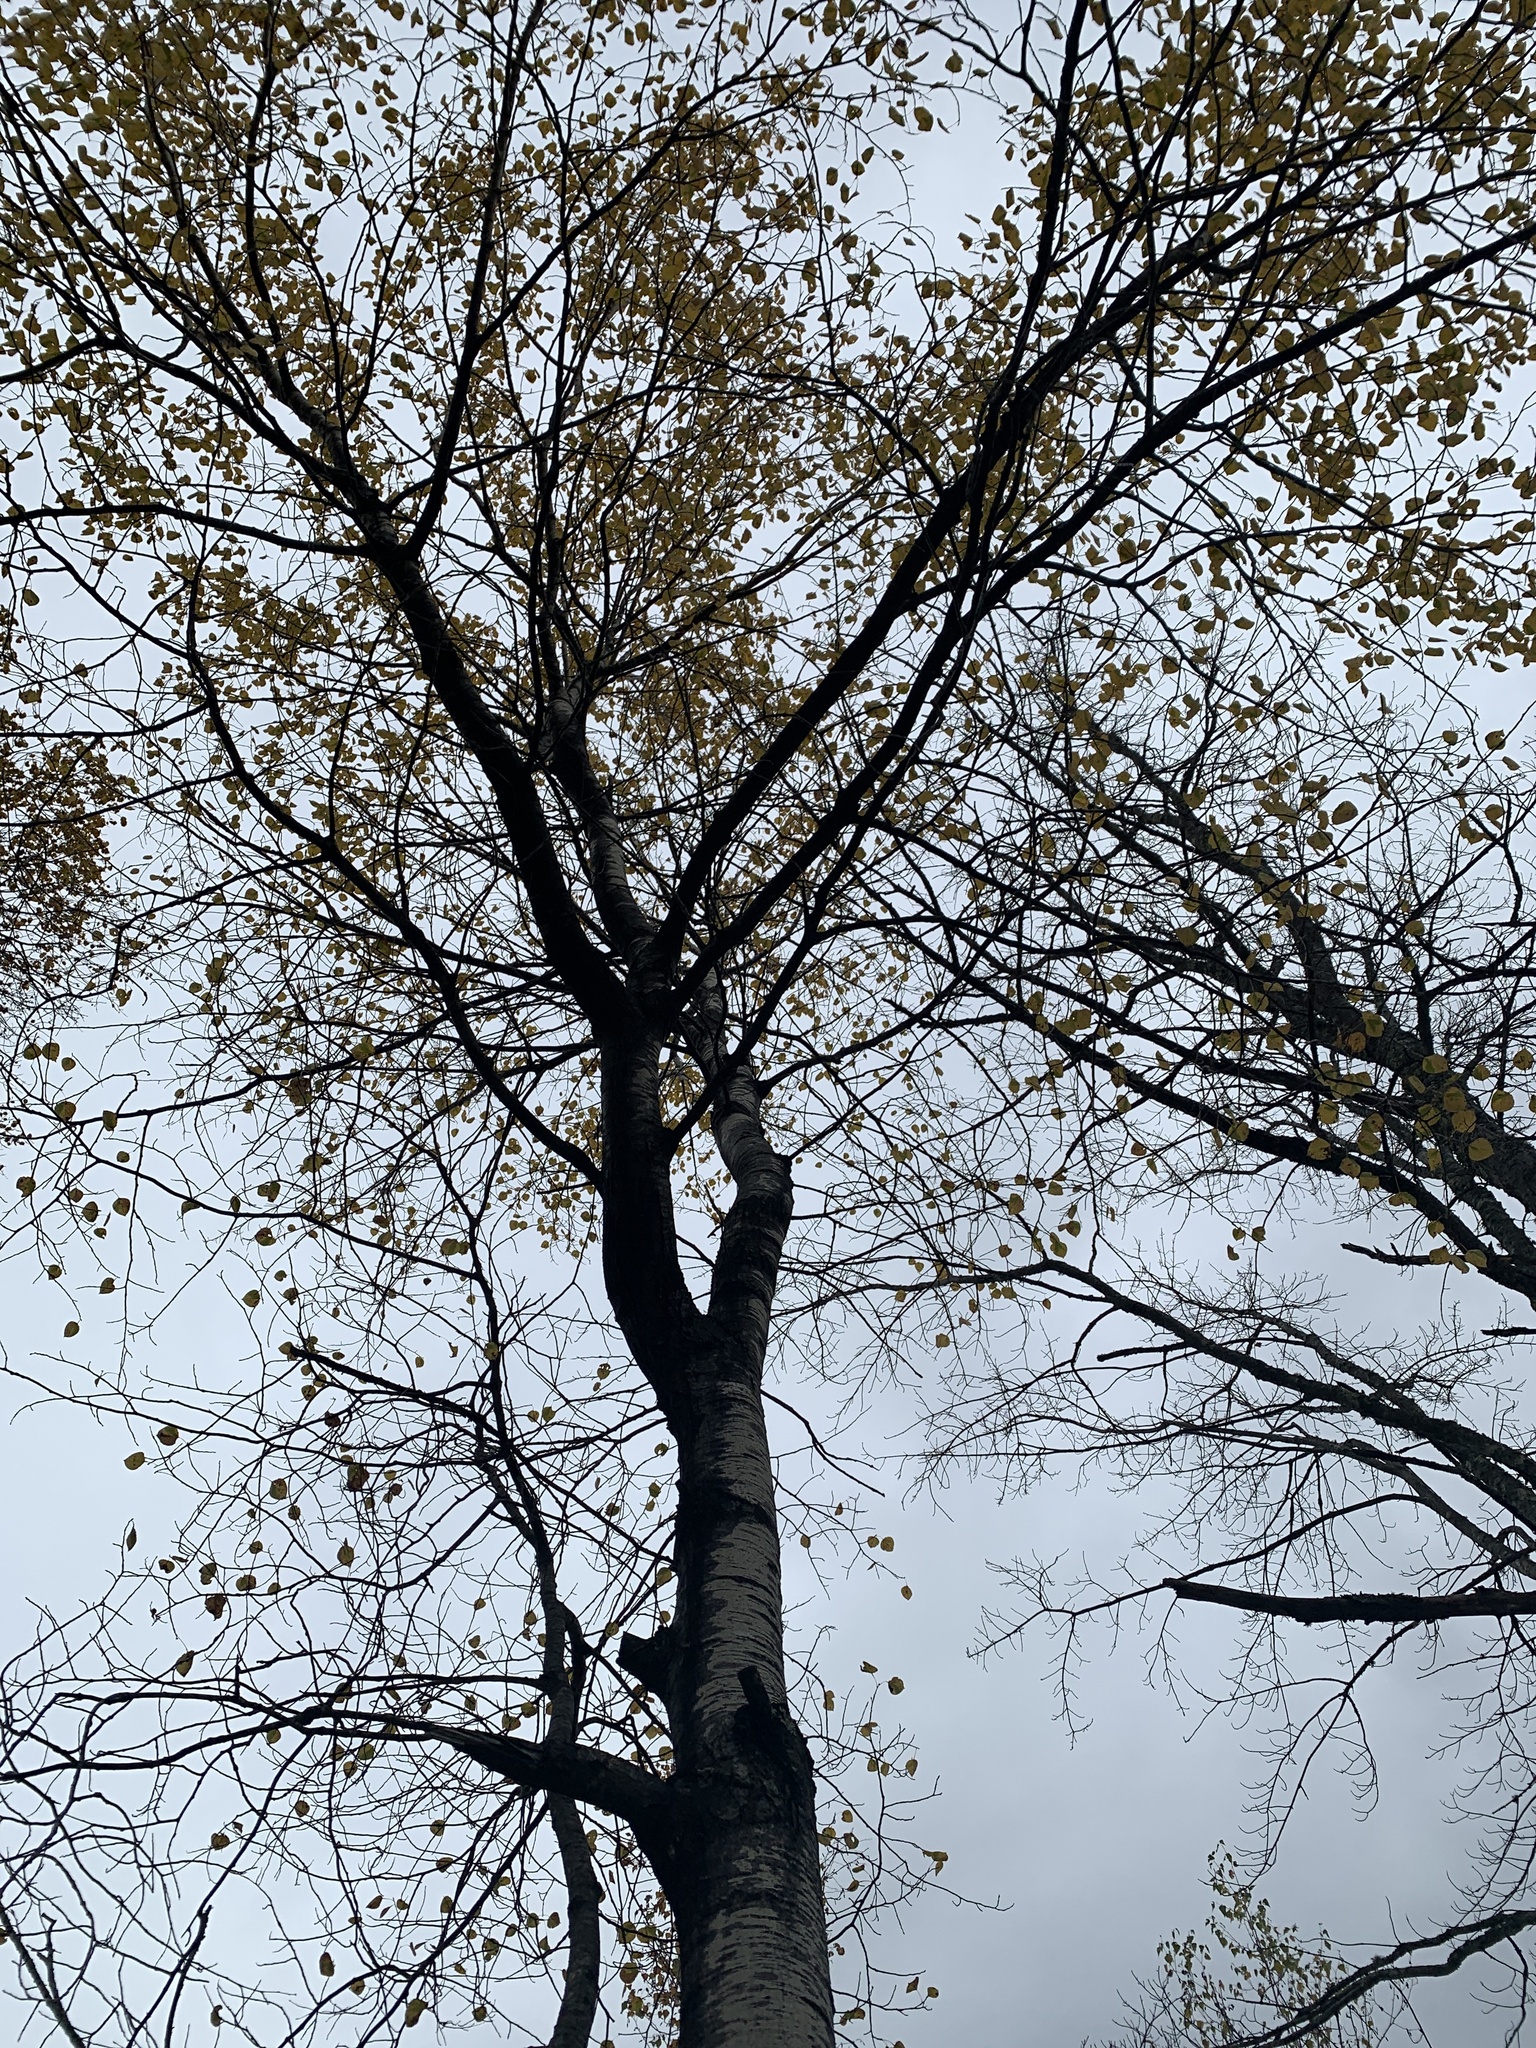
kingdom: Plantae
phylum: Tracheophyta
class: Magnoliopsida
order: Malpighiales
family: Salicaceae
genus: Populus
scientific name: Populus tremuloides
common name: Quaking aspen
